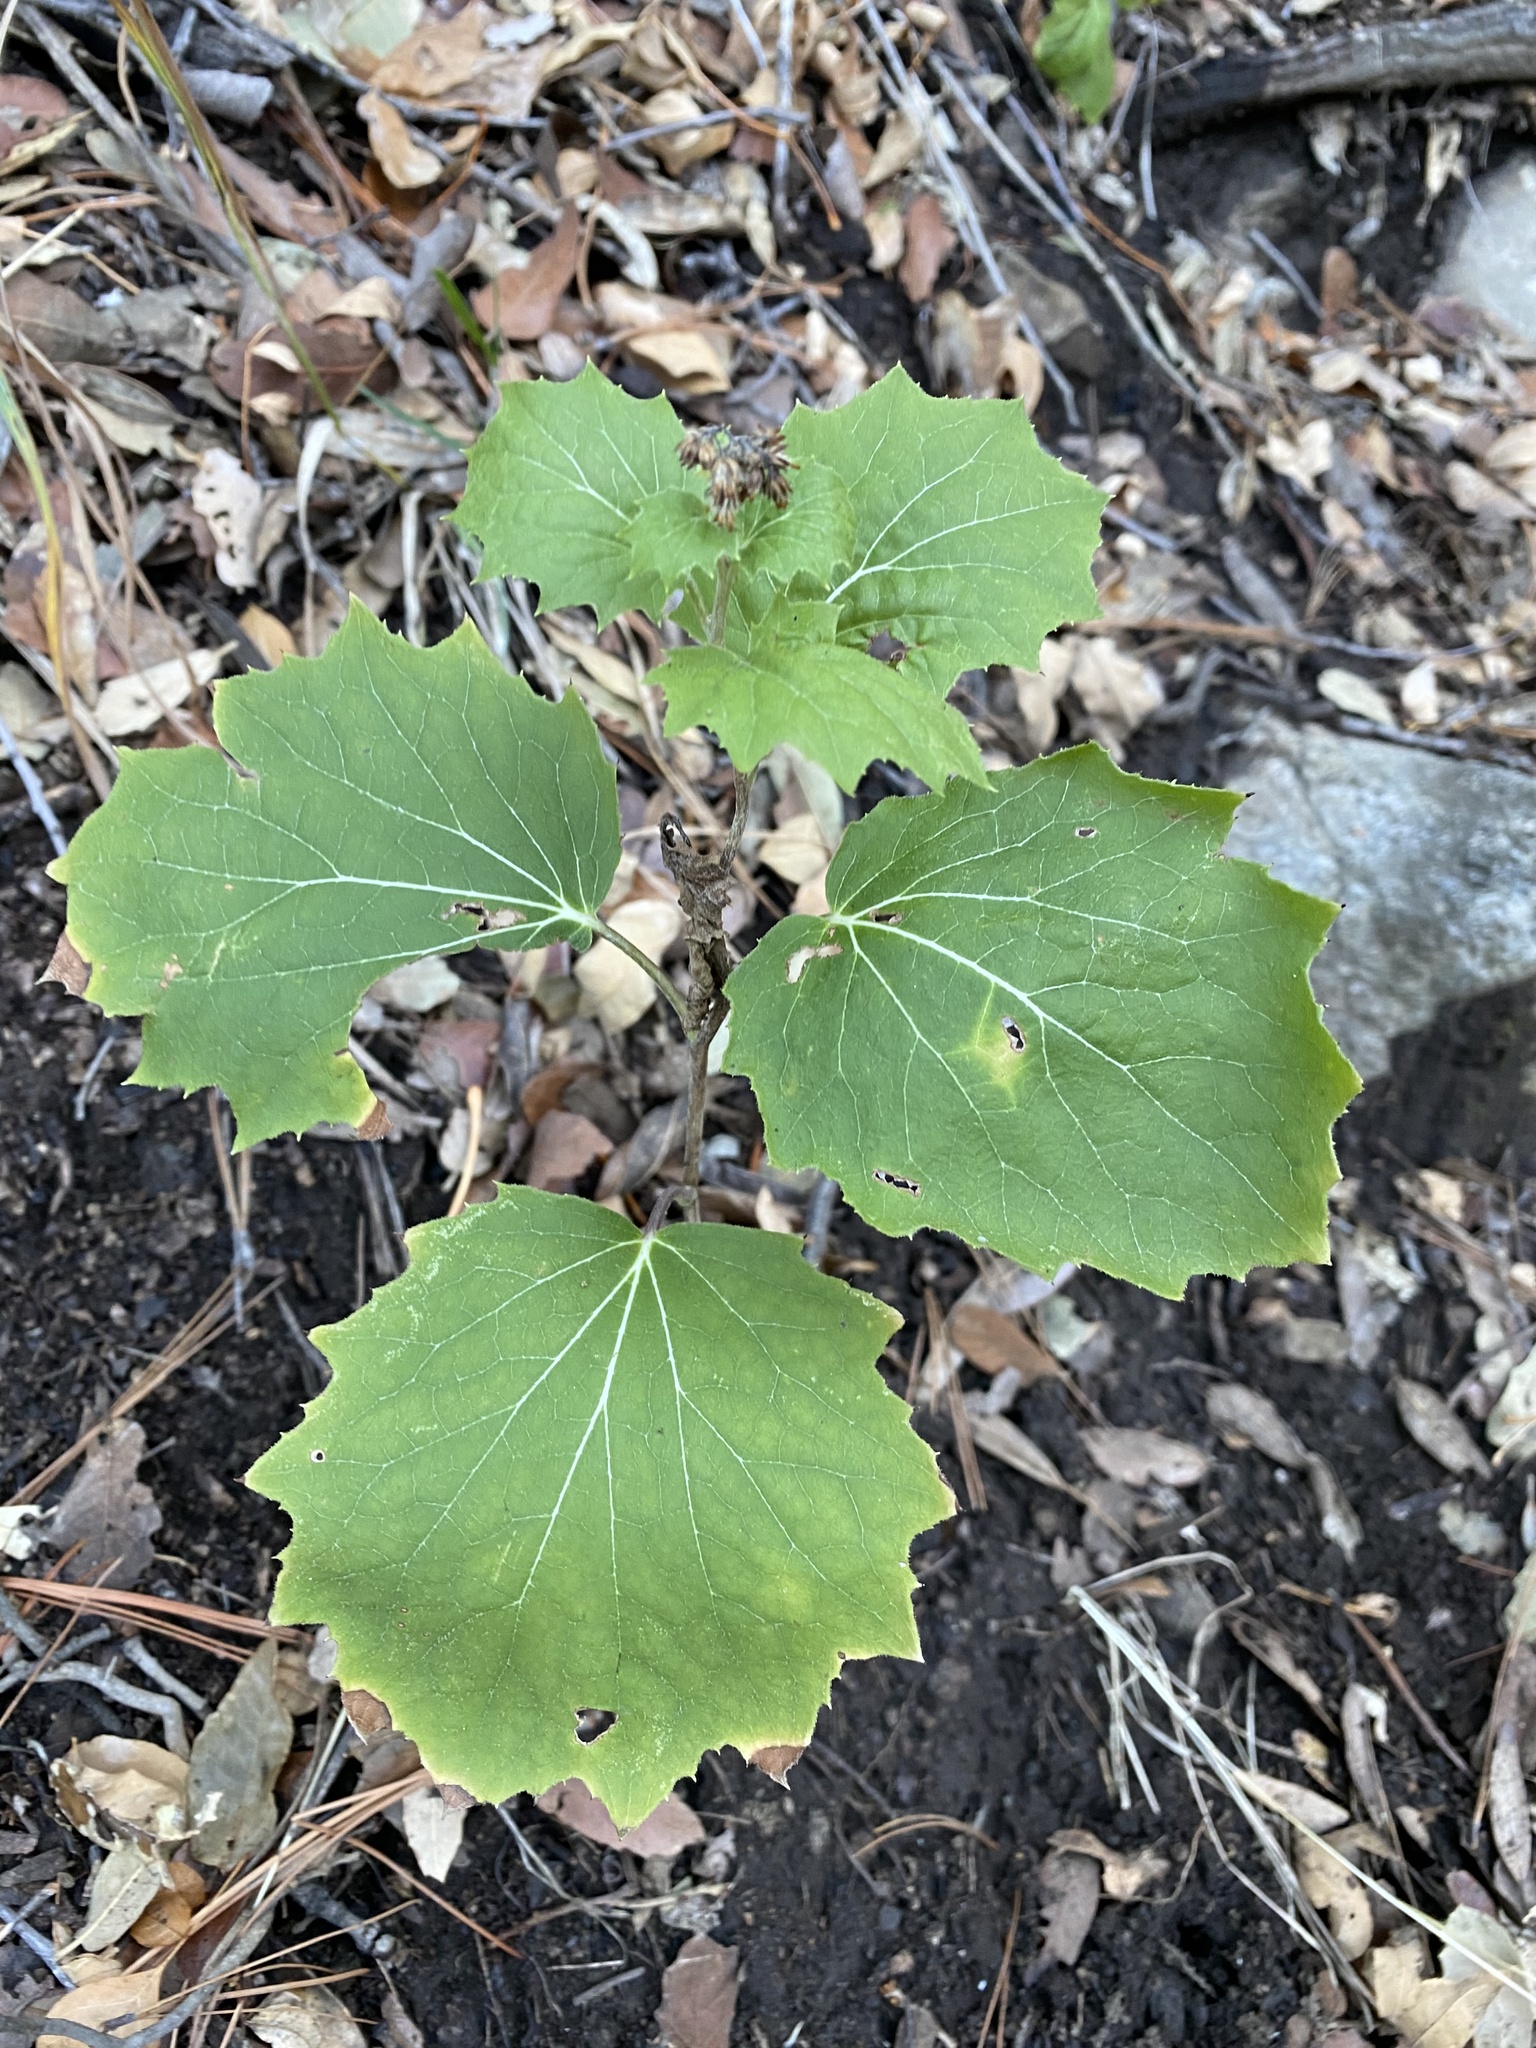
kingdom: Plantae
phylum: Tracheophyta
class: Magnoliopsida
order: Asterales
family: Asteraceae
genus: Roldana
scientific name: Roldana hartwegii
